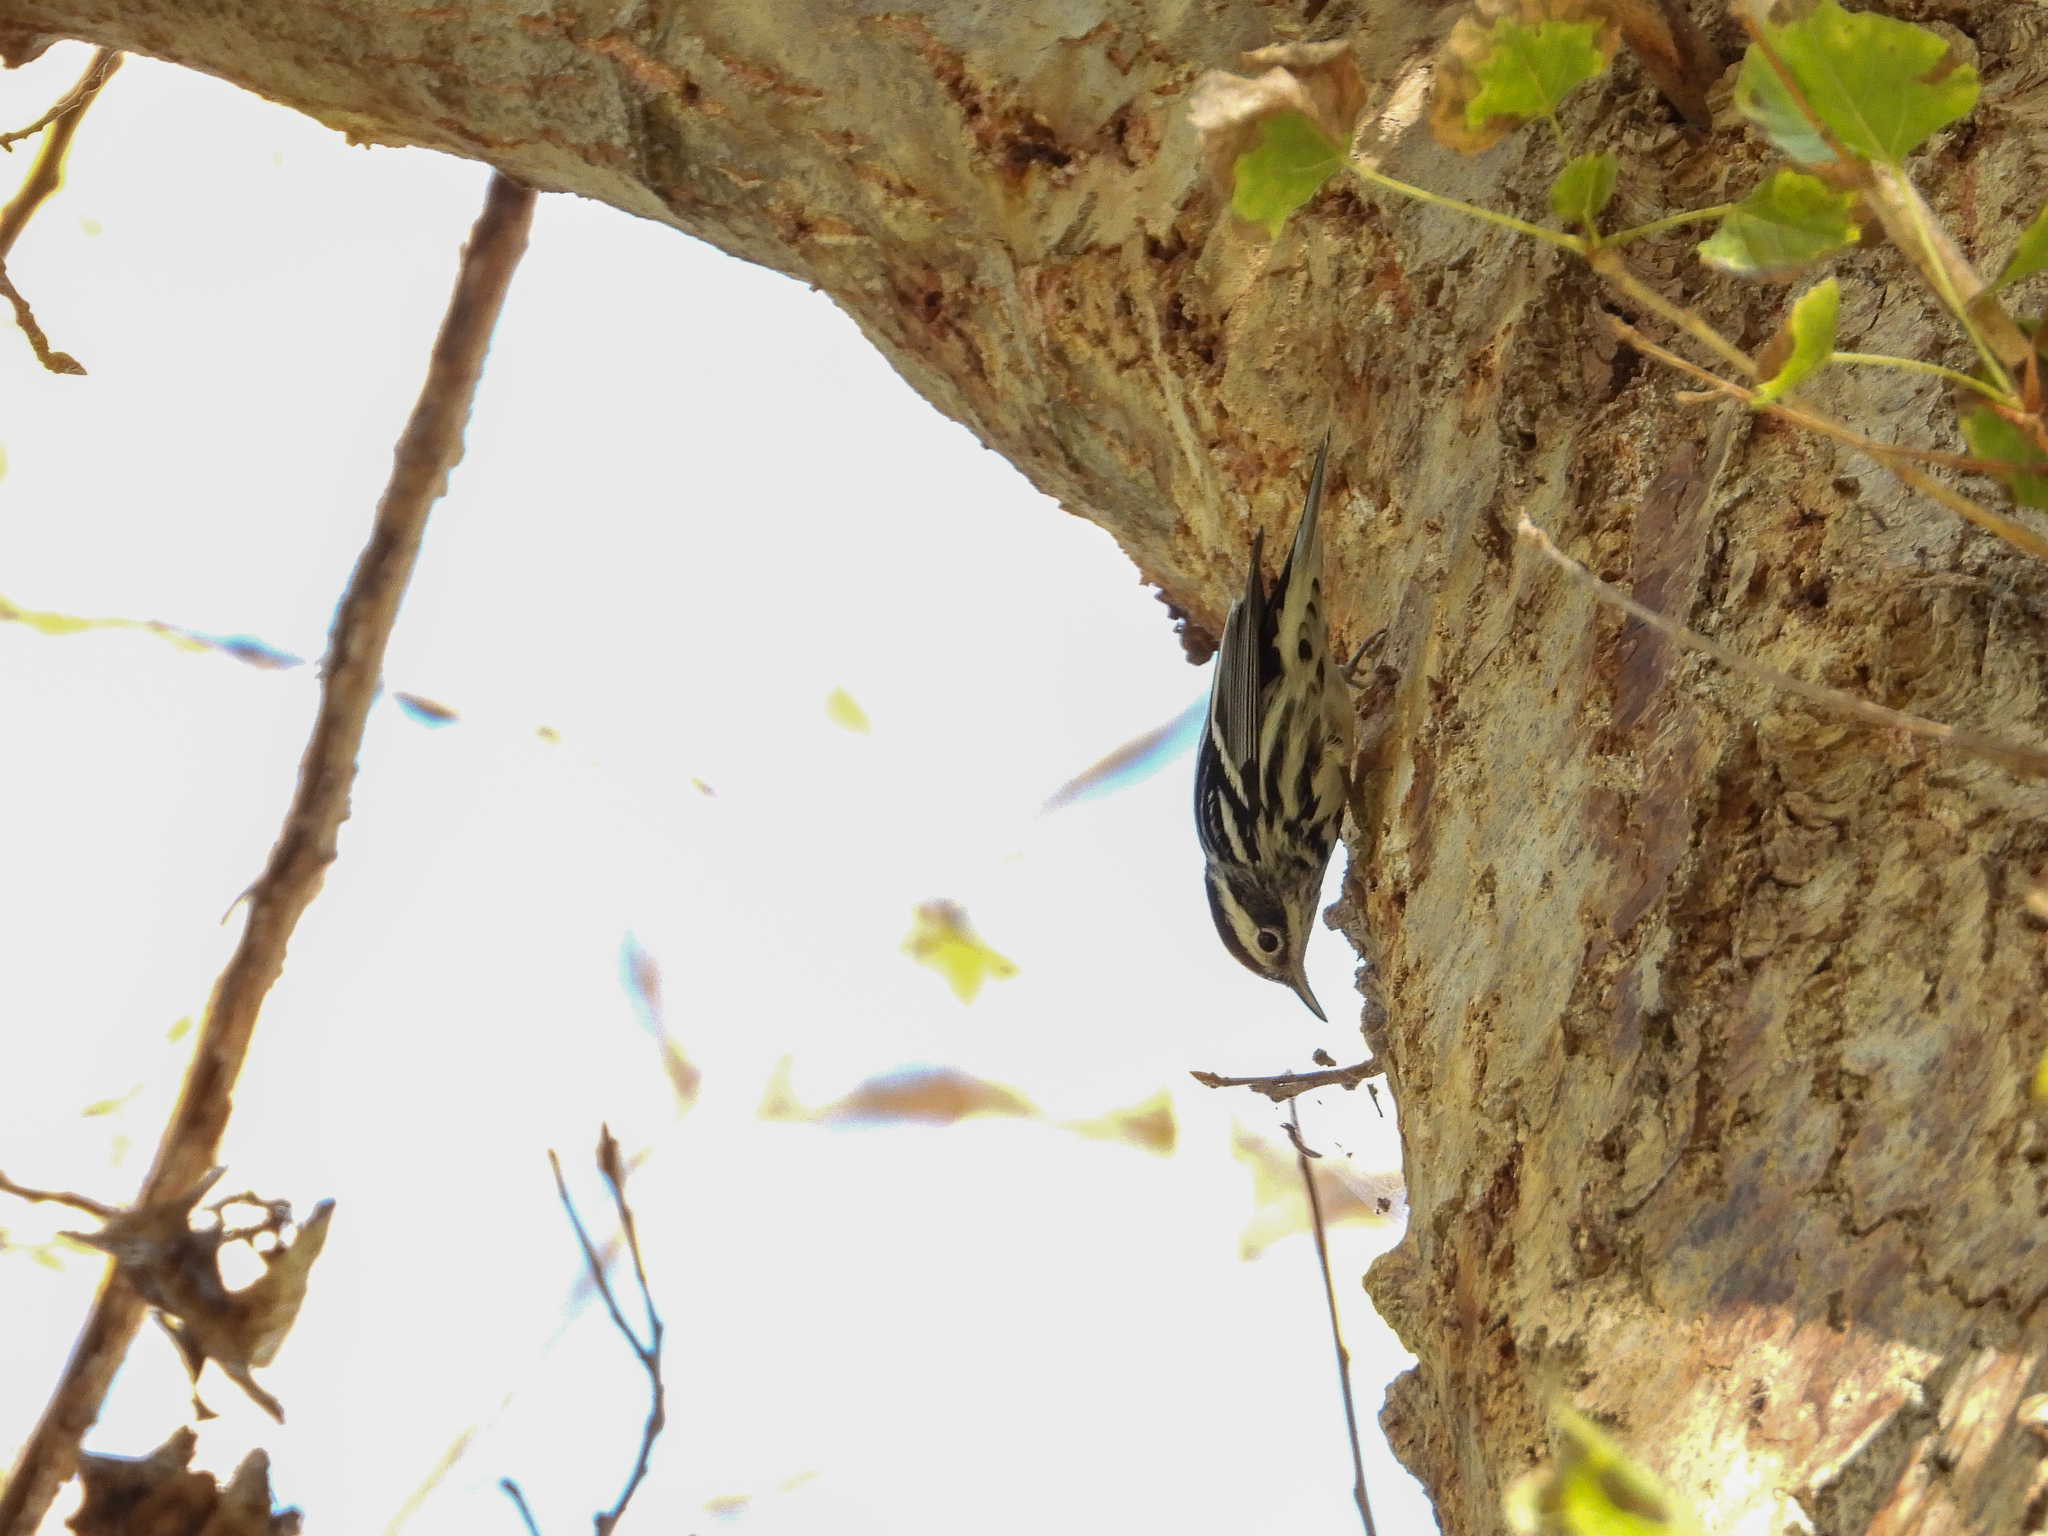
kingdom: Animalia
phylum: Chordata
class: Aves
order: Passeriformes
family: Parulidae
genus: Mniotilta
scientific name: Mniotilta varia
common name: Black-and-white warbler
